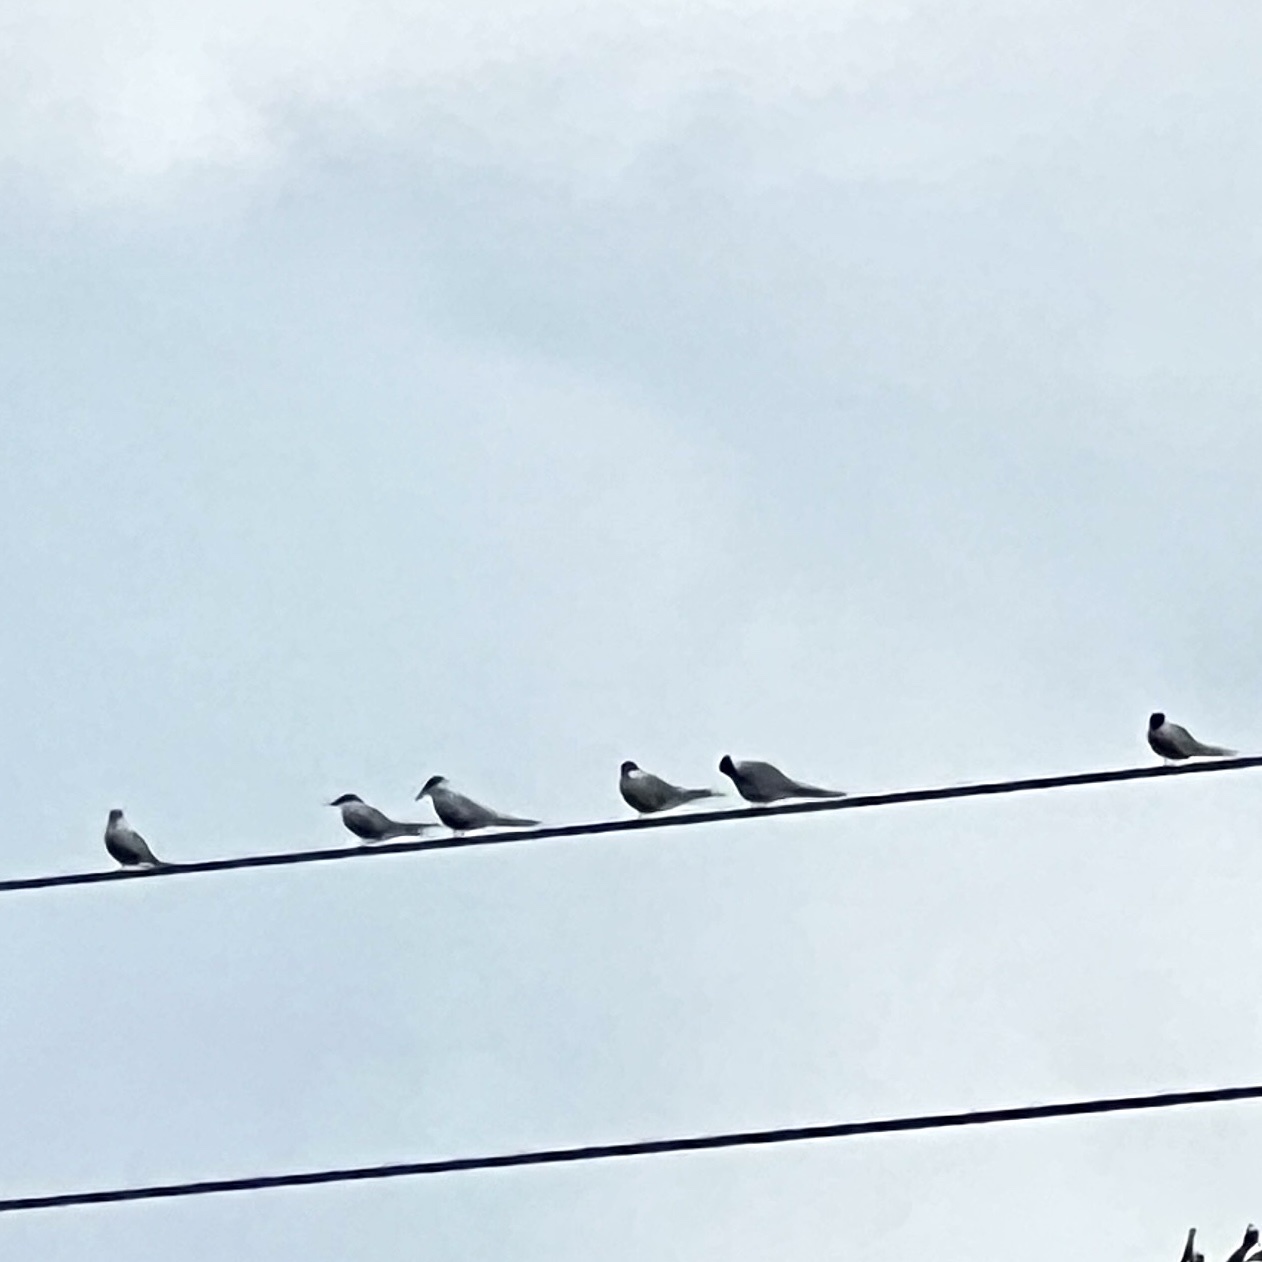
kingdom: Animalia
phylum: Chordata
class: Aves
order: Charadriiformes
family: Laridae
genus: Sterna
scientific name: Sterna hirundo
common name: Common tern
